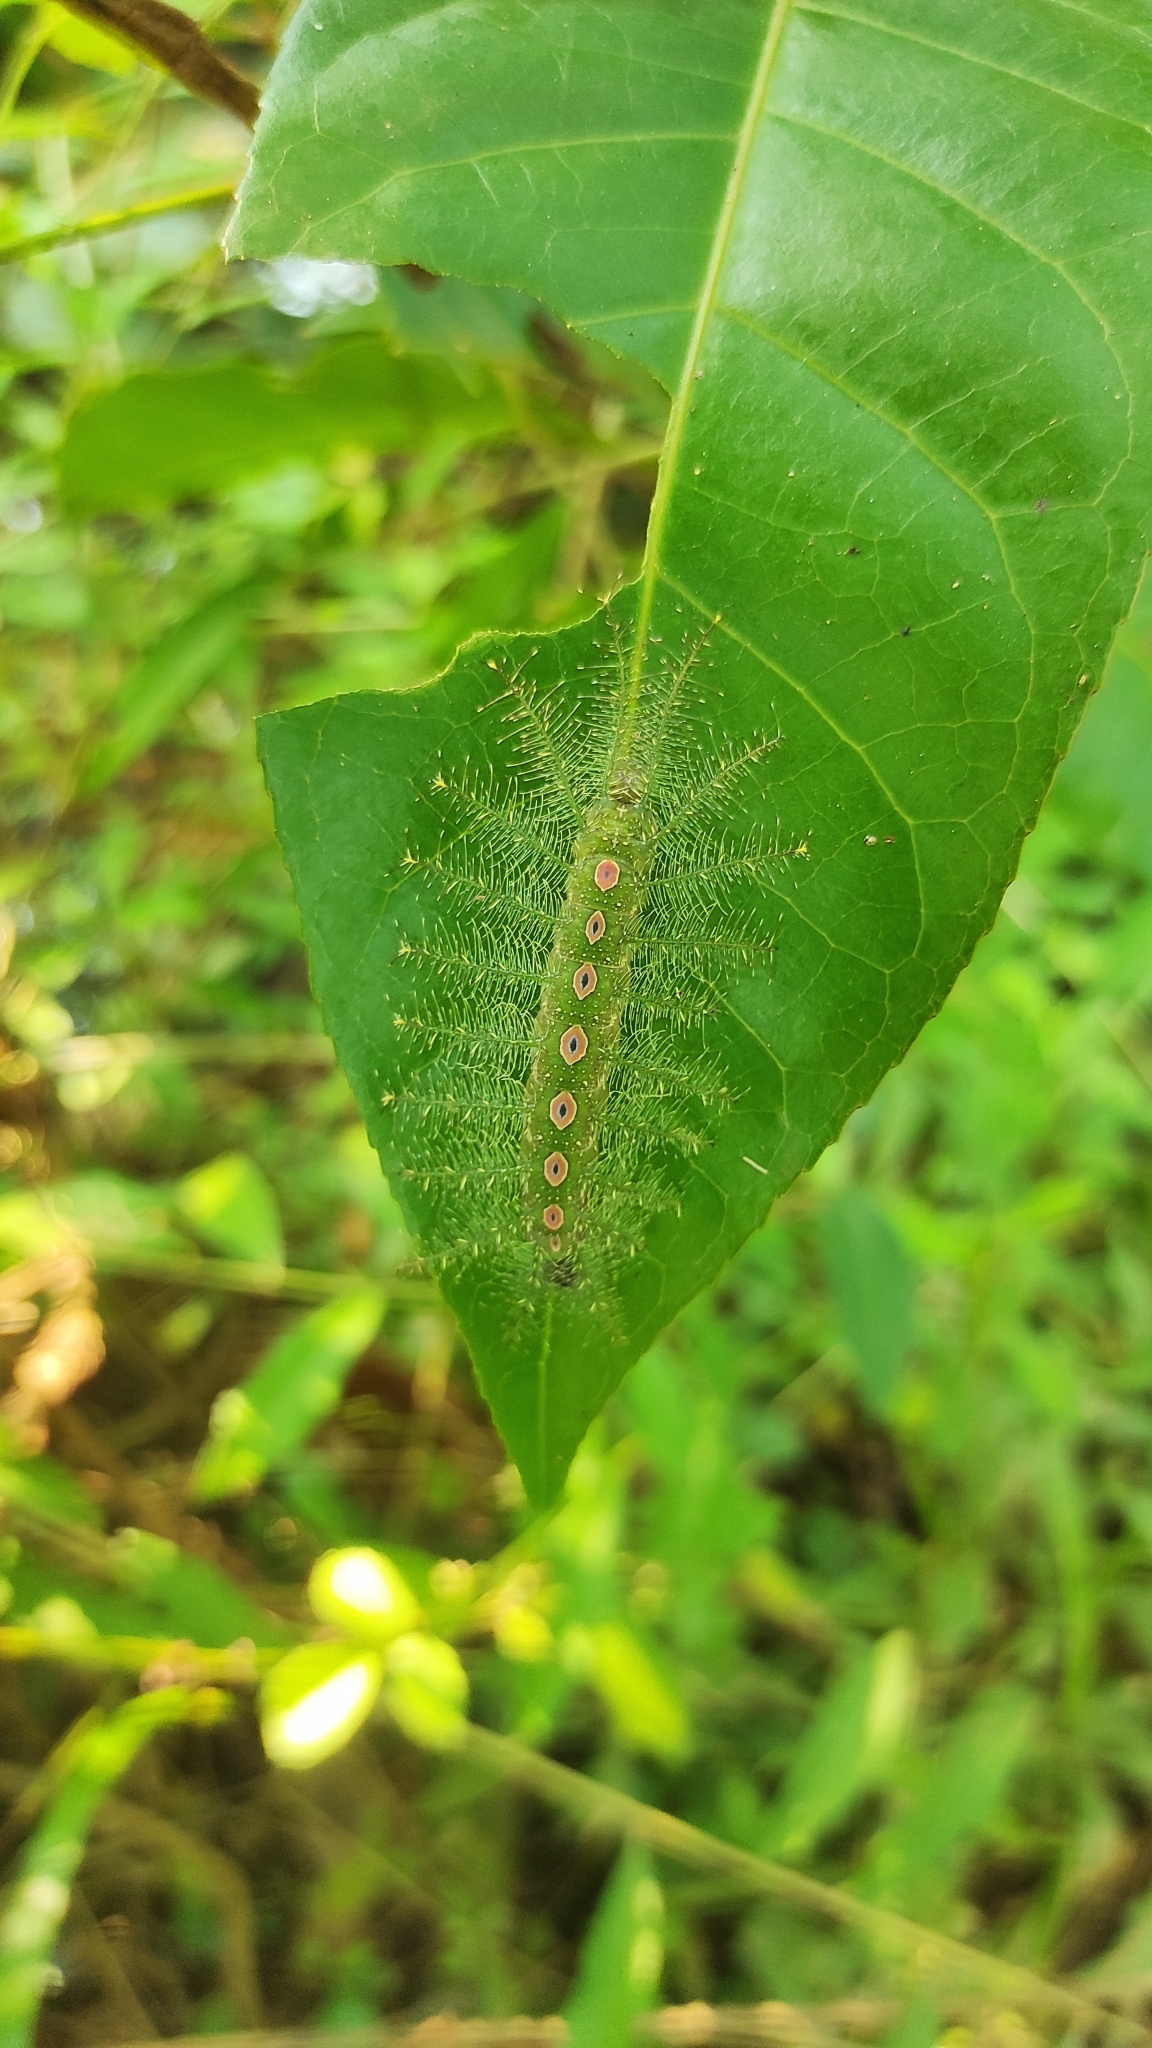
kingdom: Animalia
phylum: Arthropoda
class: Insecta
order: Lepidoptera
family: Nymphalidae
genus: Tanaecia
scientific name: Tanaecia lepidea
